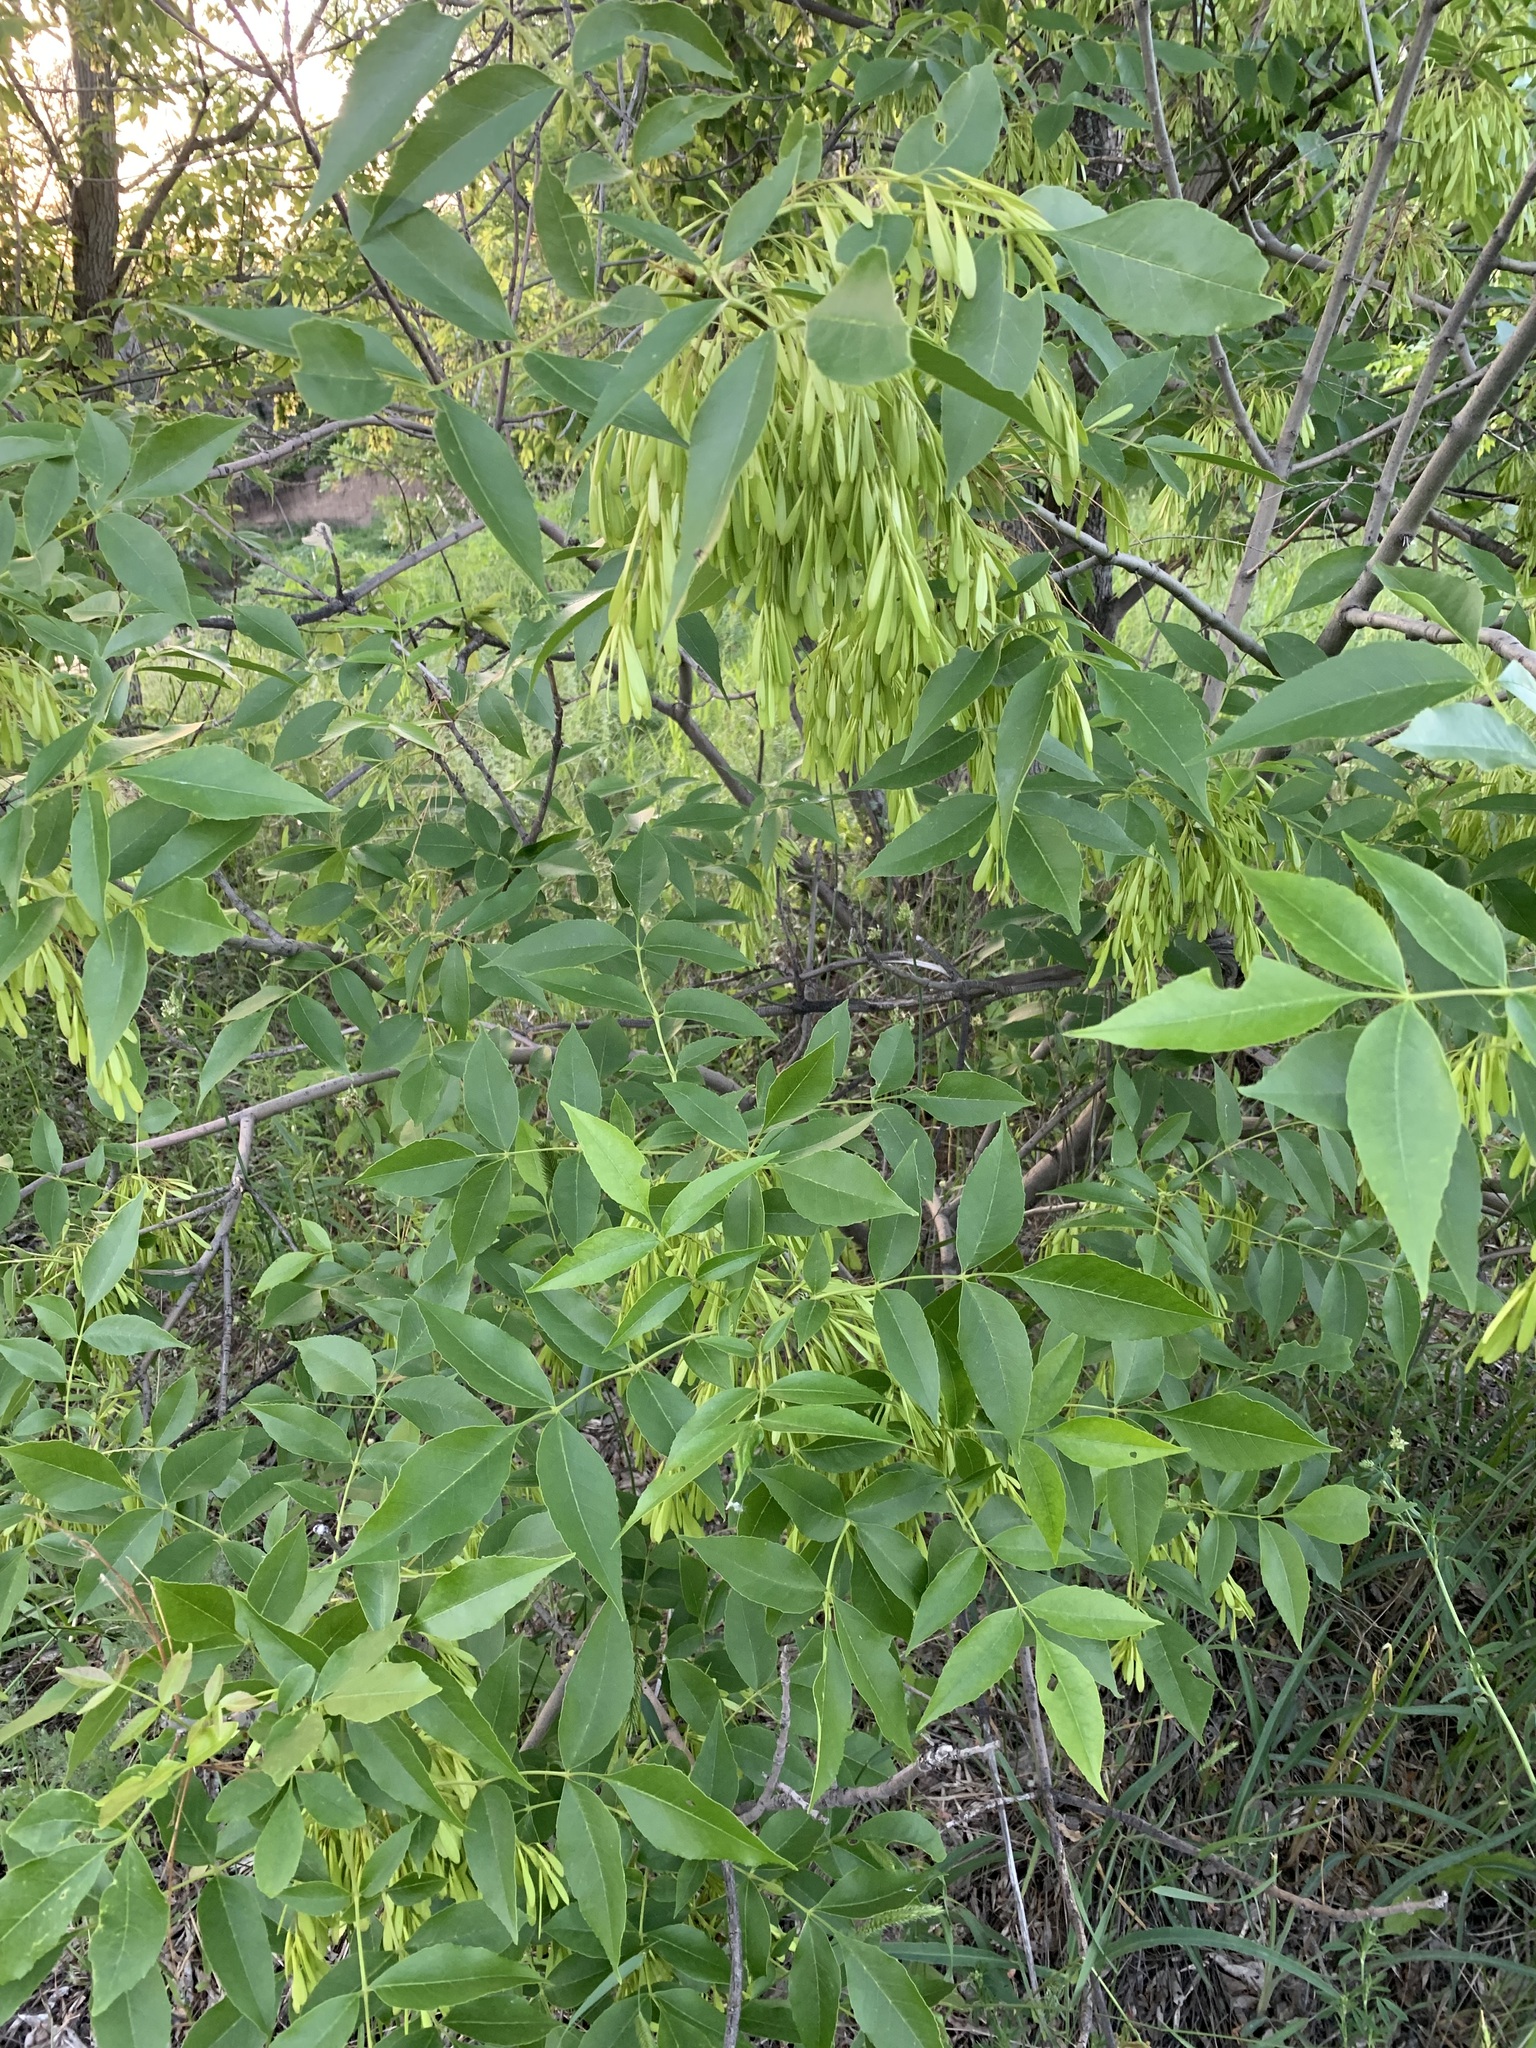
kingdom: Plantae
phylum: Tracheophyta
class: Magnoliopsida
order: Lamiales
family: Oleaceae
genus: Fraxinus
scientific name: Fraxinus pennsylvanica
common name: Green ash
